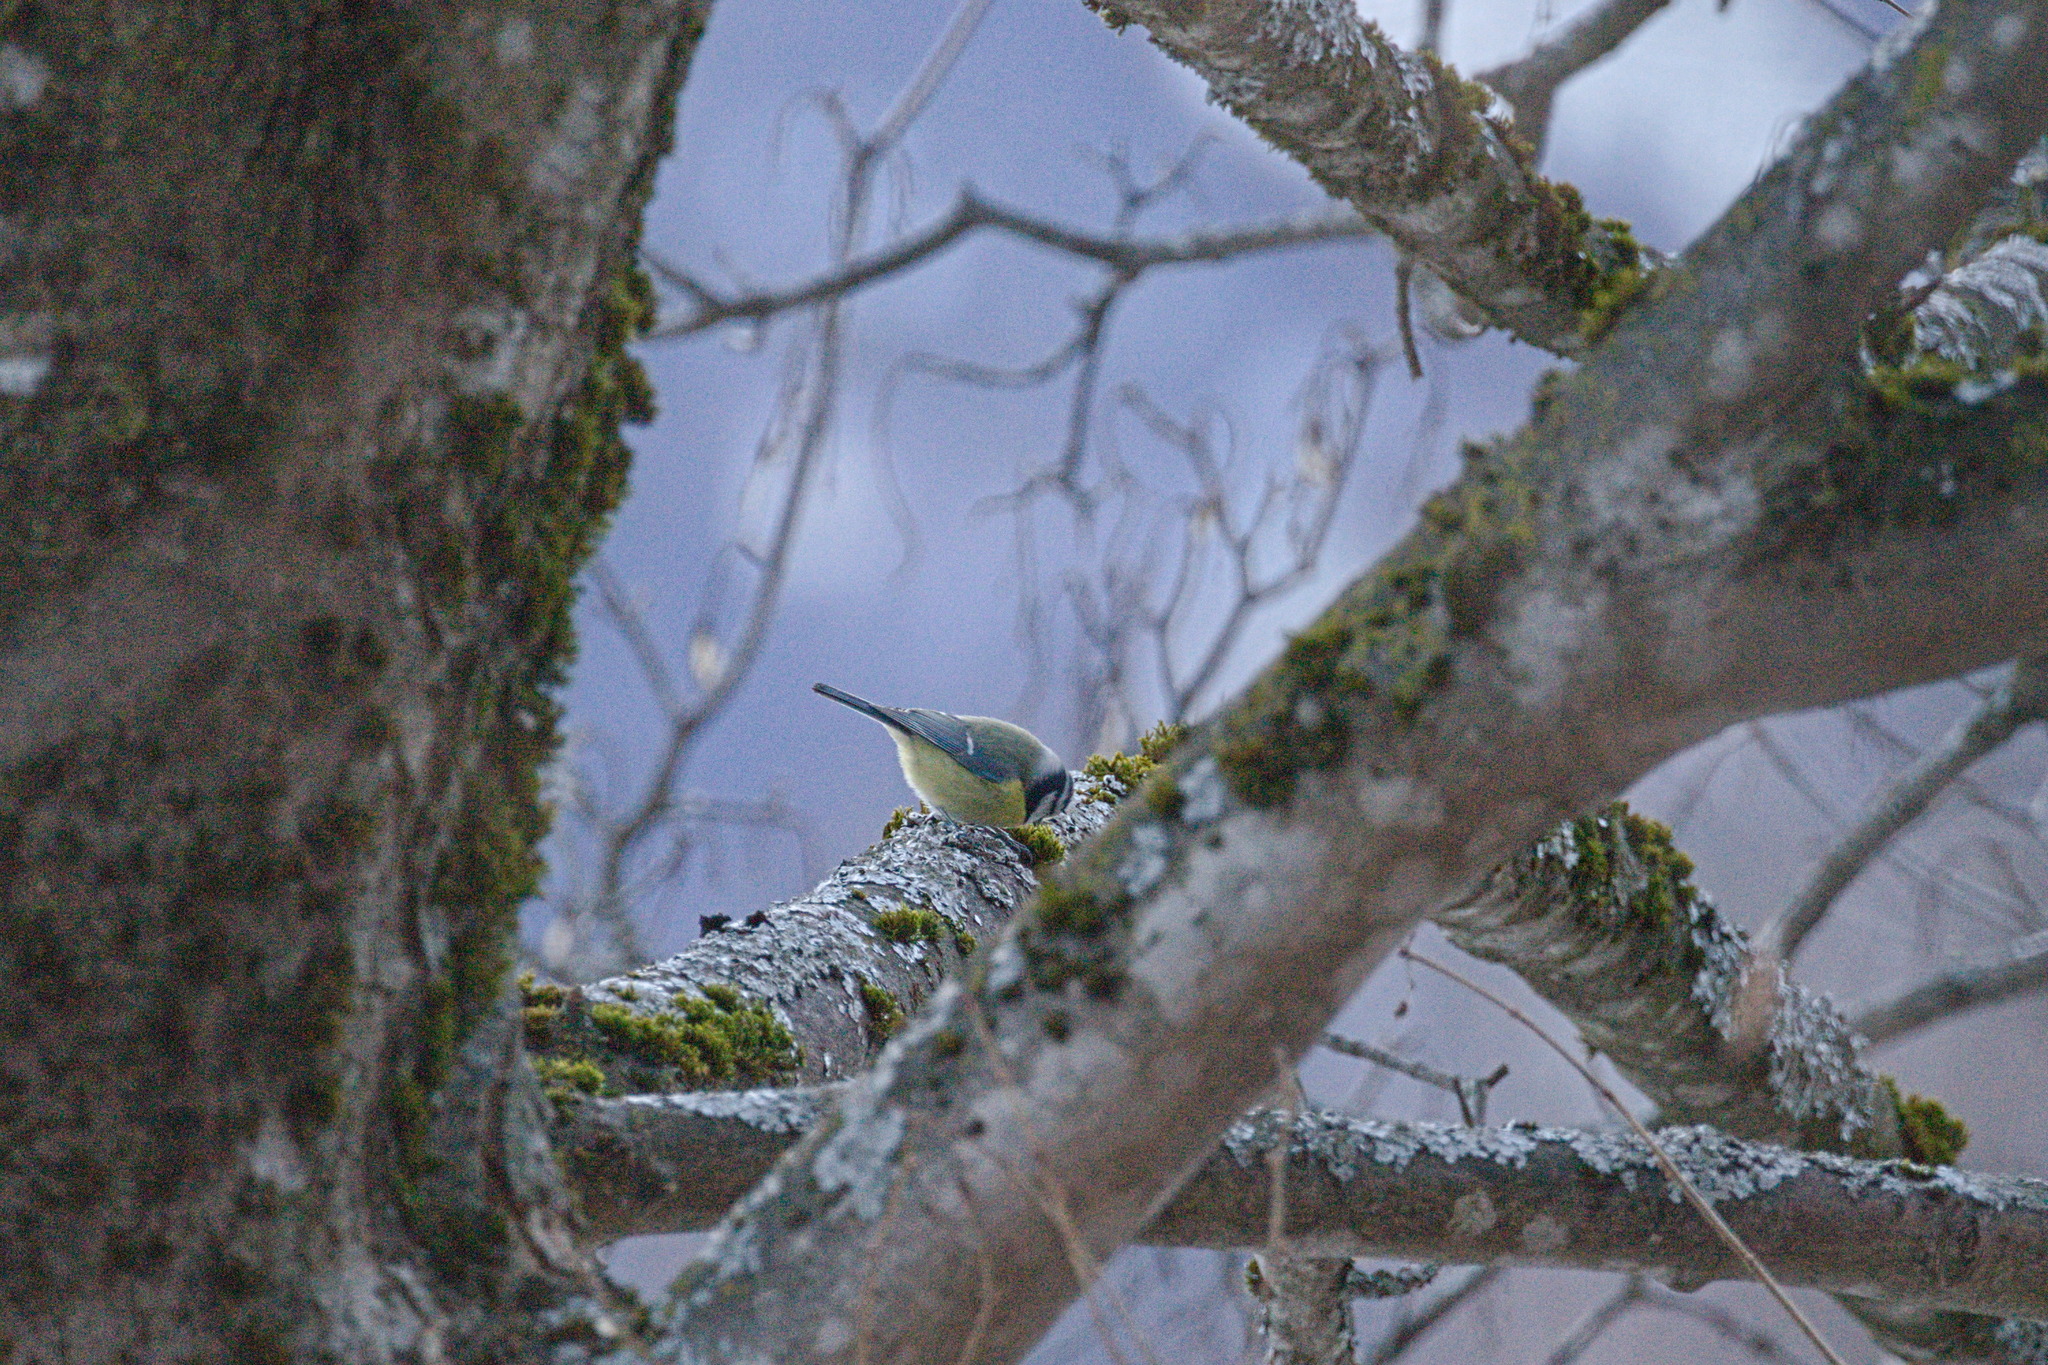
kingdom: Animalia
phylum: Chordata
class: Aves
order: Passeriformes
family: Paridae
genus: Cyanistes
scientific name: Cyanistes caeruleus
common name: Eurasian blue tit
